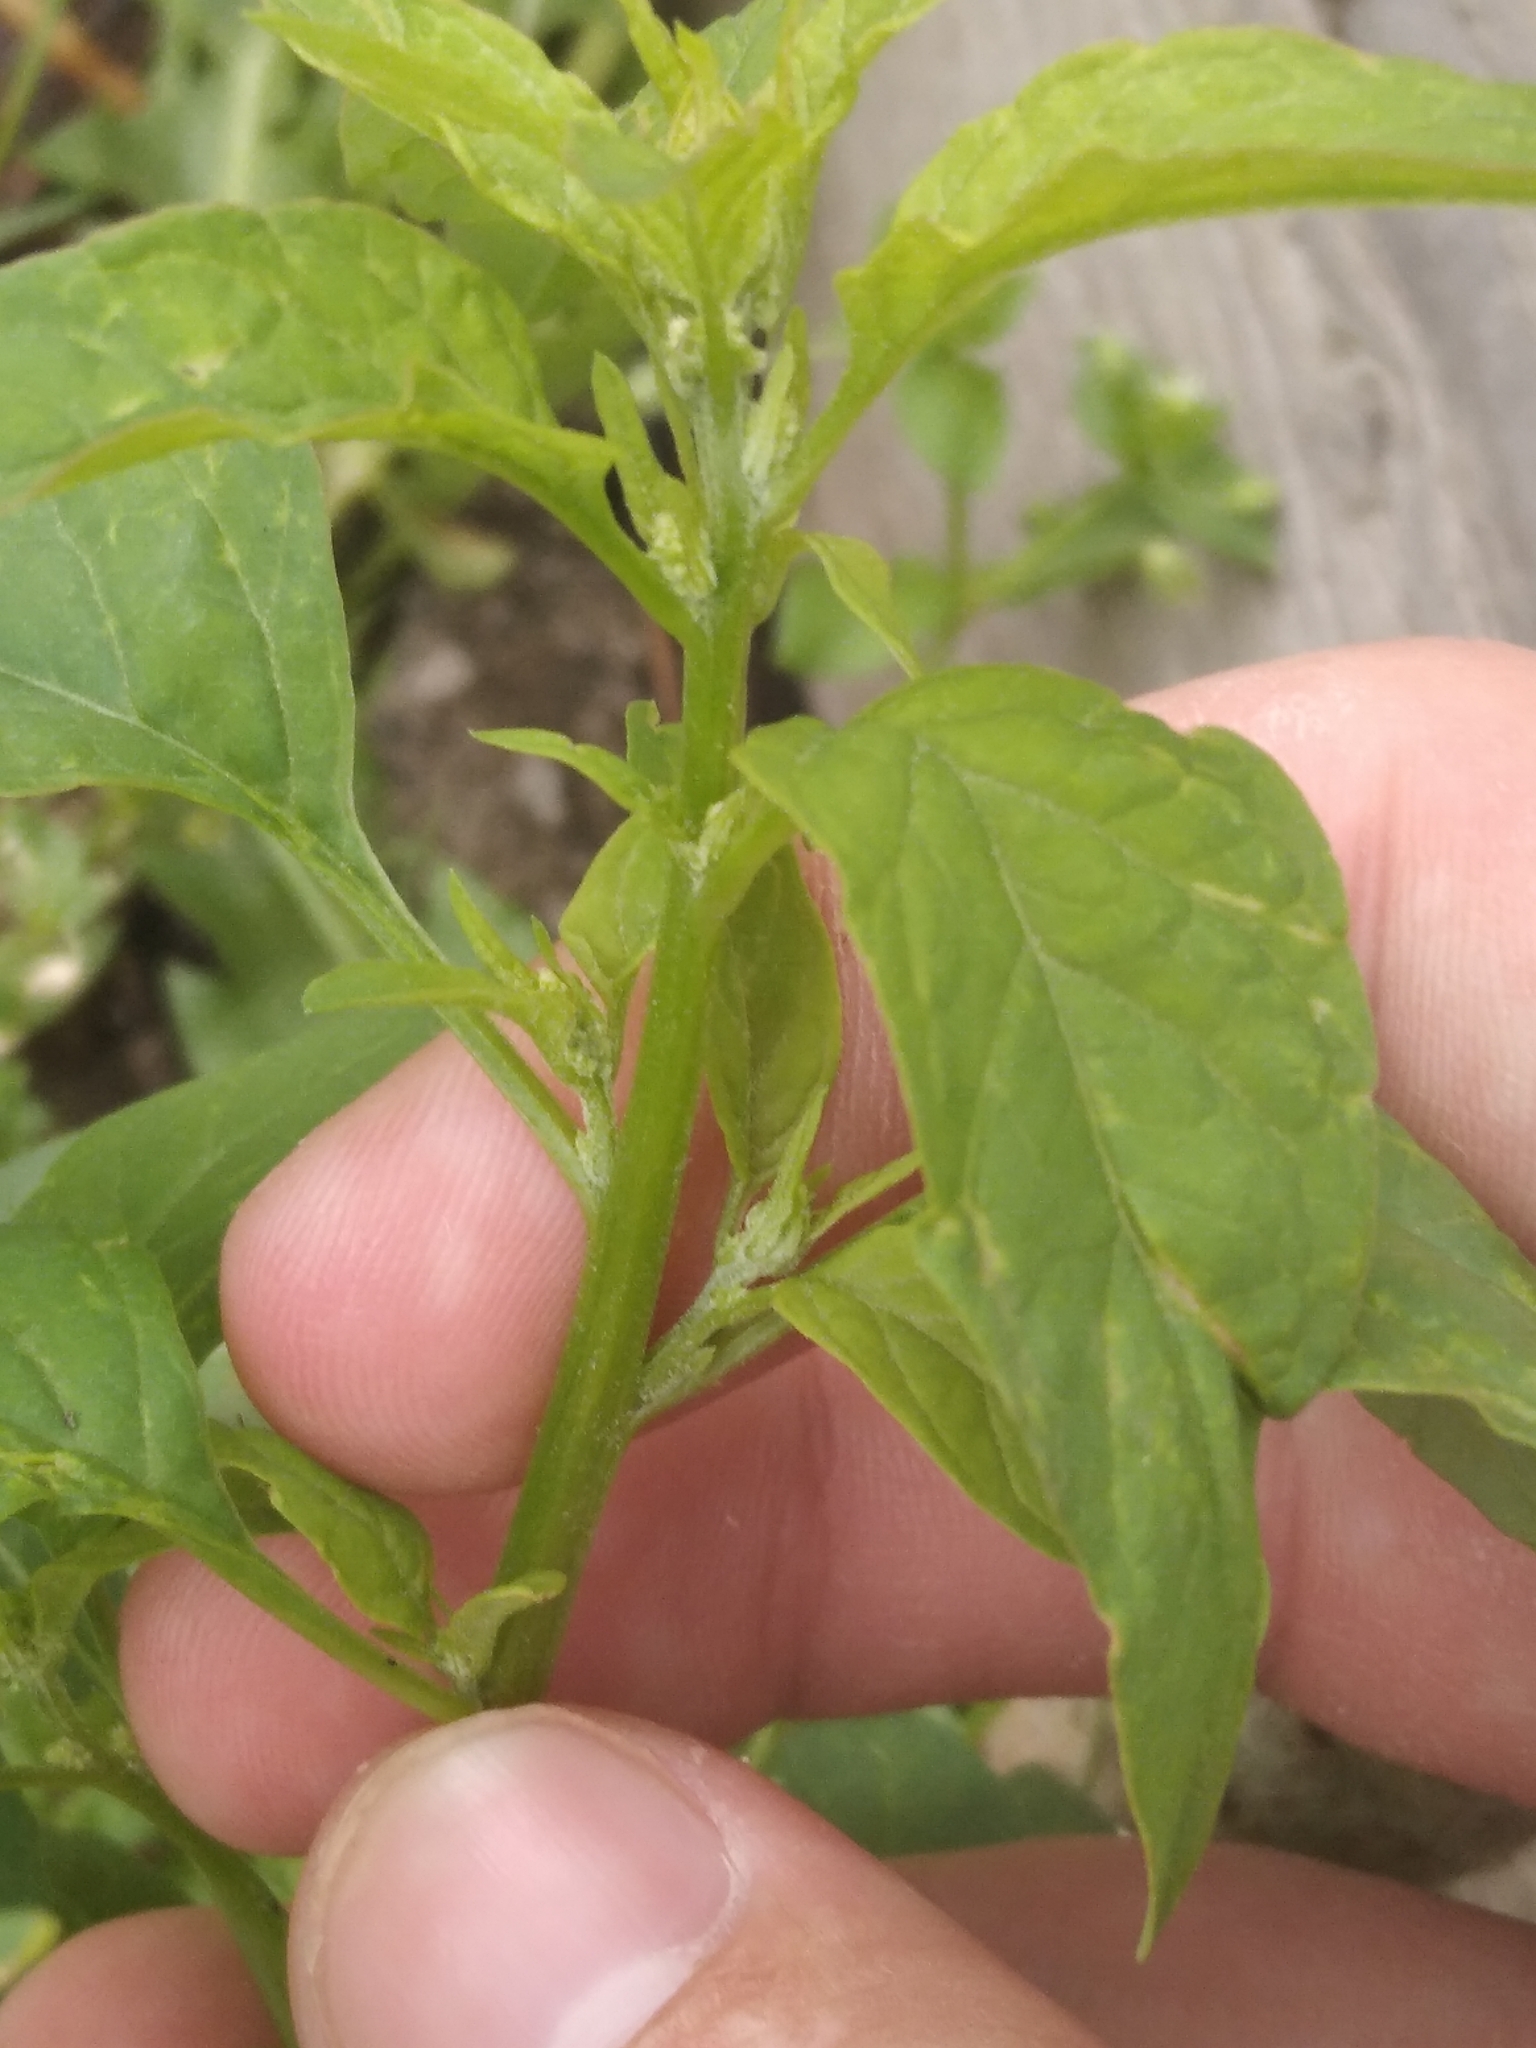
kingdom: Plantae
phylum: Tracheophyta
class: Magnoliopsida
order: Caryophyllales
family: Amaranthaceae
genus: Lipandra
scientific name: Lipandra polysperma
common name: Many-seed goosefoot
